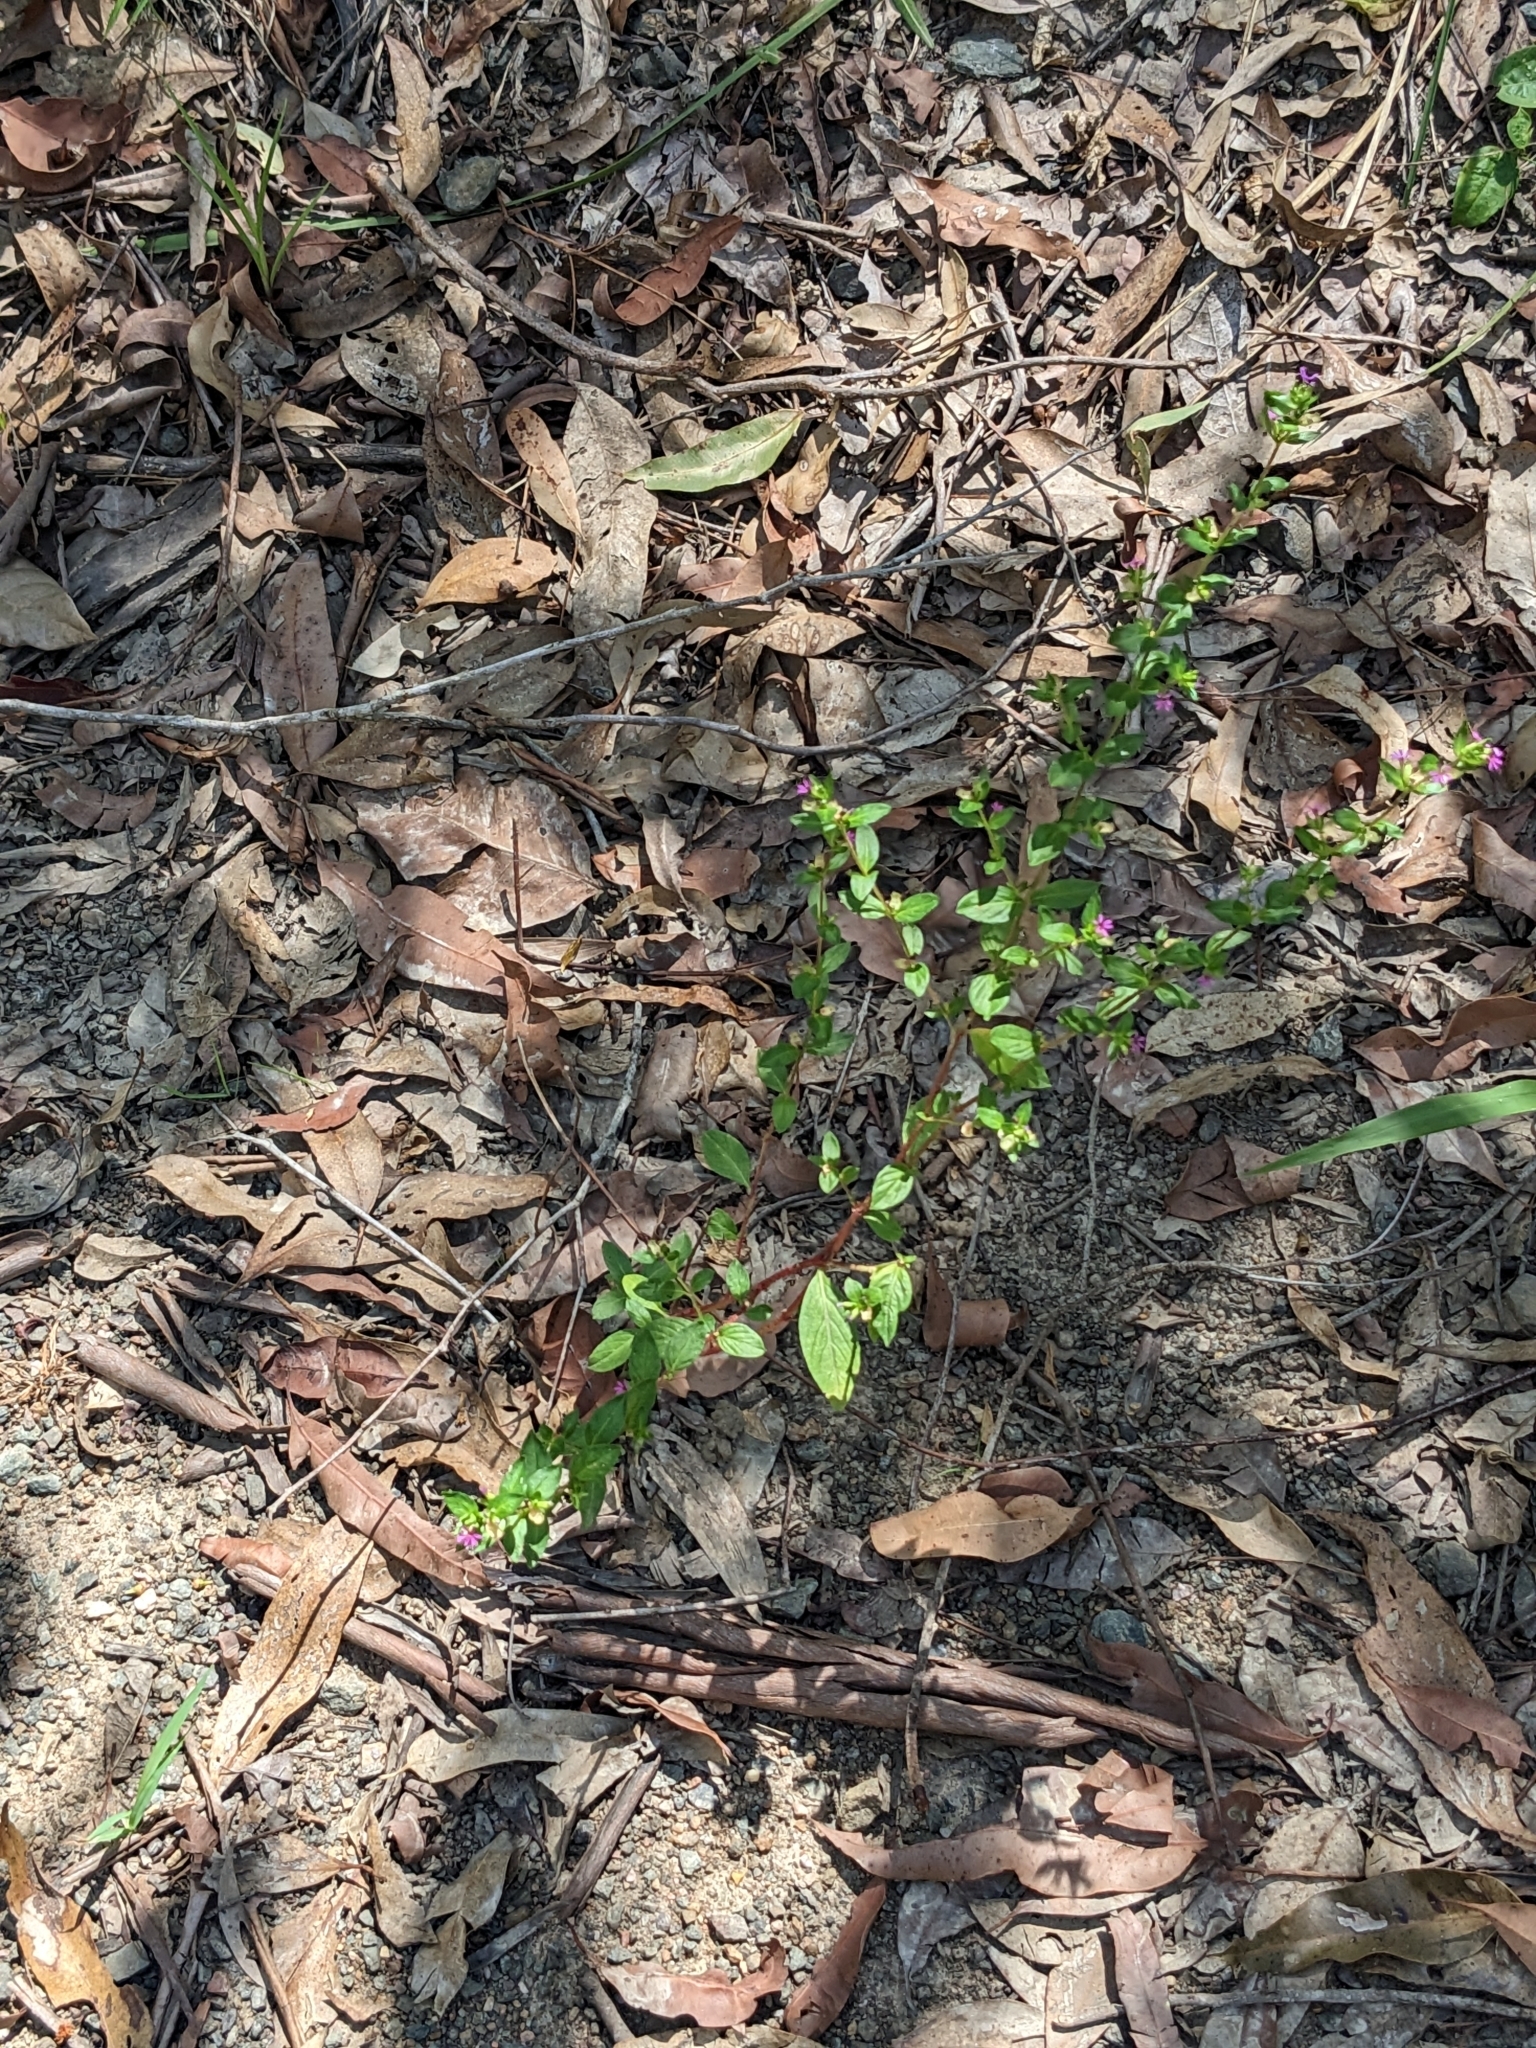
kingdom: Plantae
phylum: Tracheophyta
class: Magnoliopsida
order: Myrtales
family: Lythraceae
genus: Cuphea
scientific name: Cuphea carthagenensis
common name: Colombian waxweed
